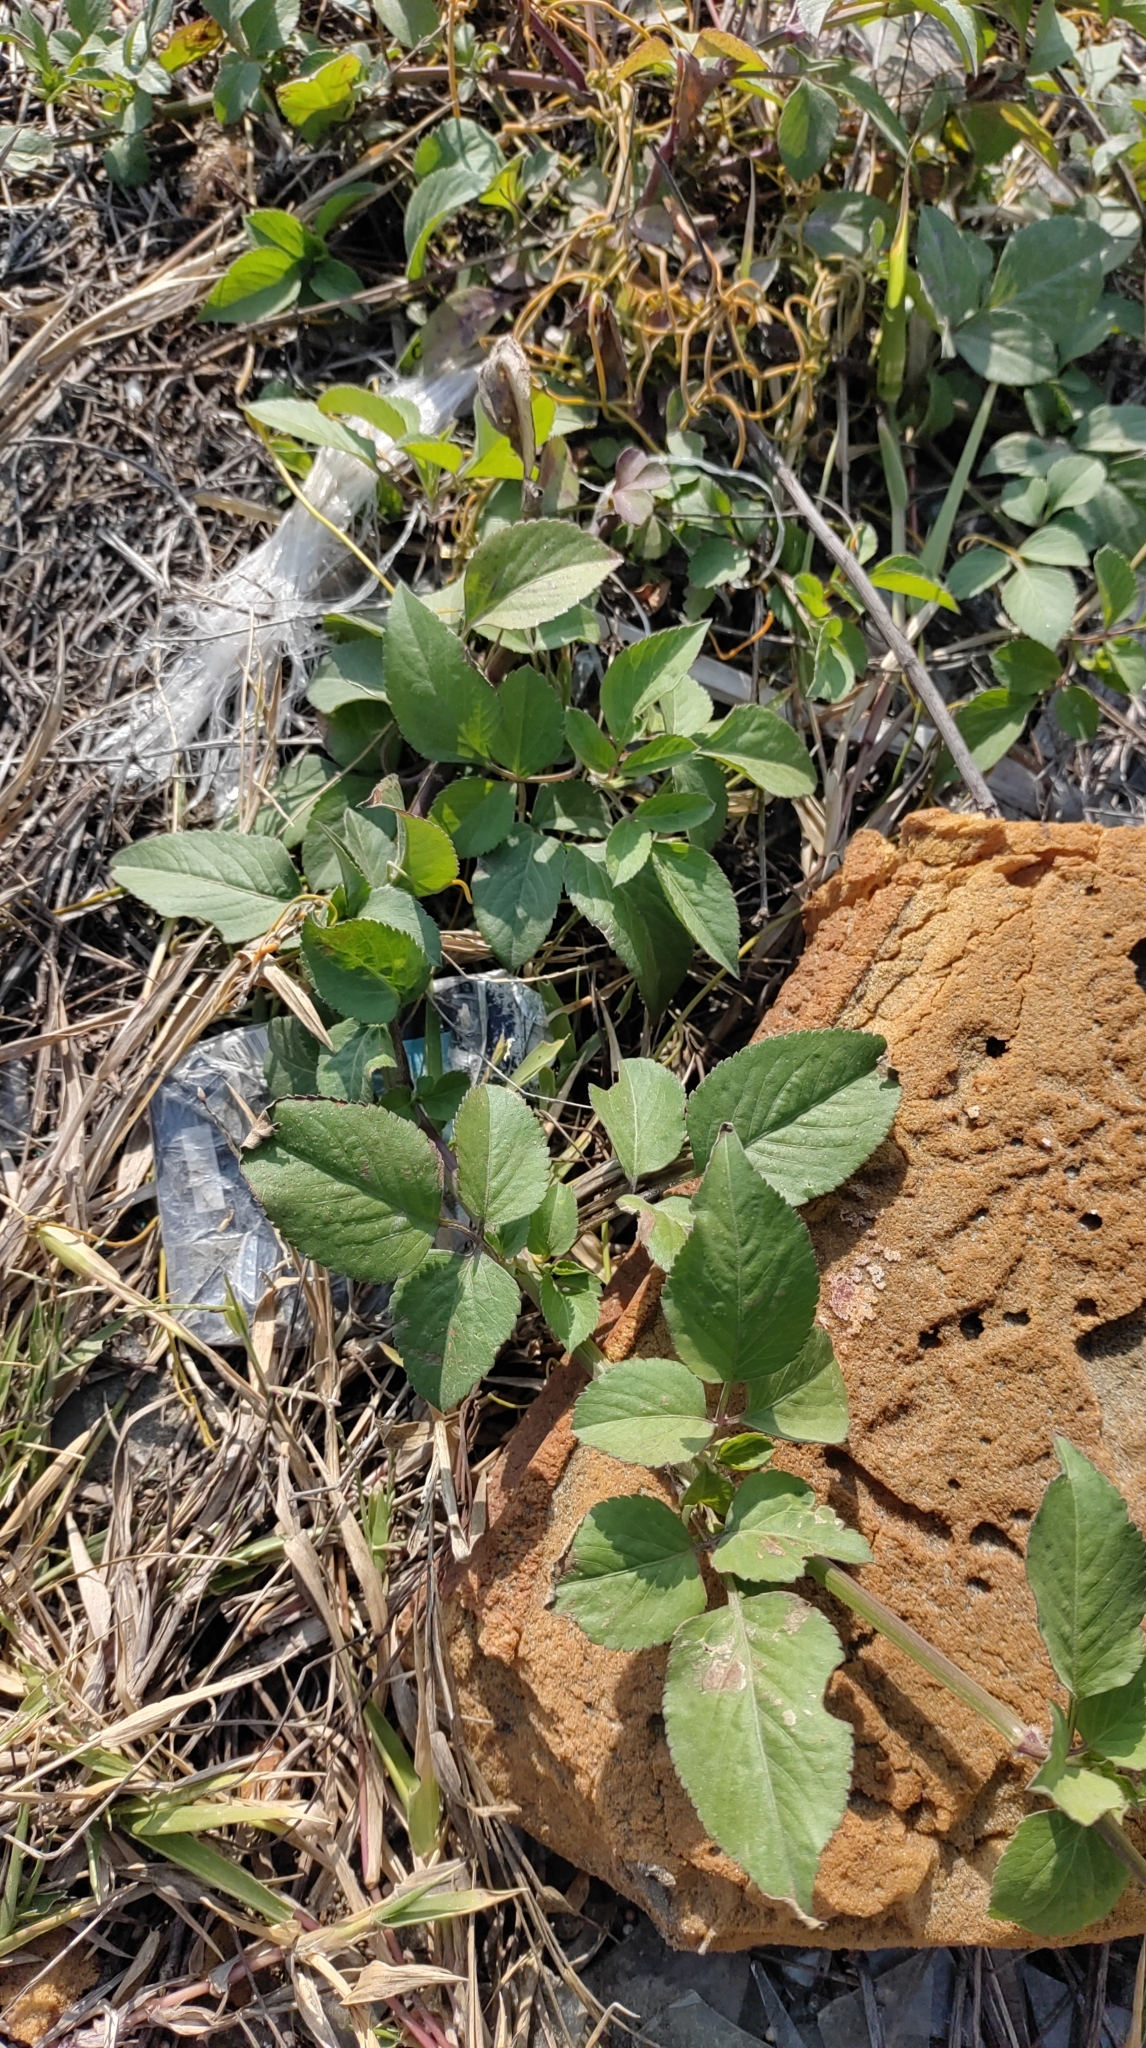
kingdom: Plantae
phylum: Tracheophyta
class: Magnoliopsida
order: Asterales
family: Asteraceae
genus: Bidens
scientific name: Bidens alba
